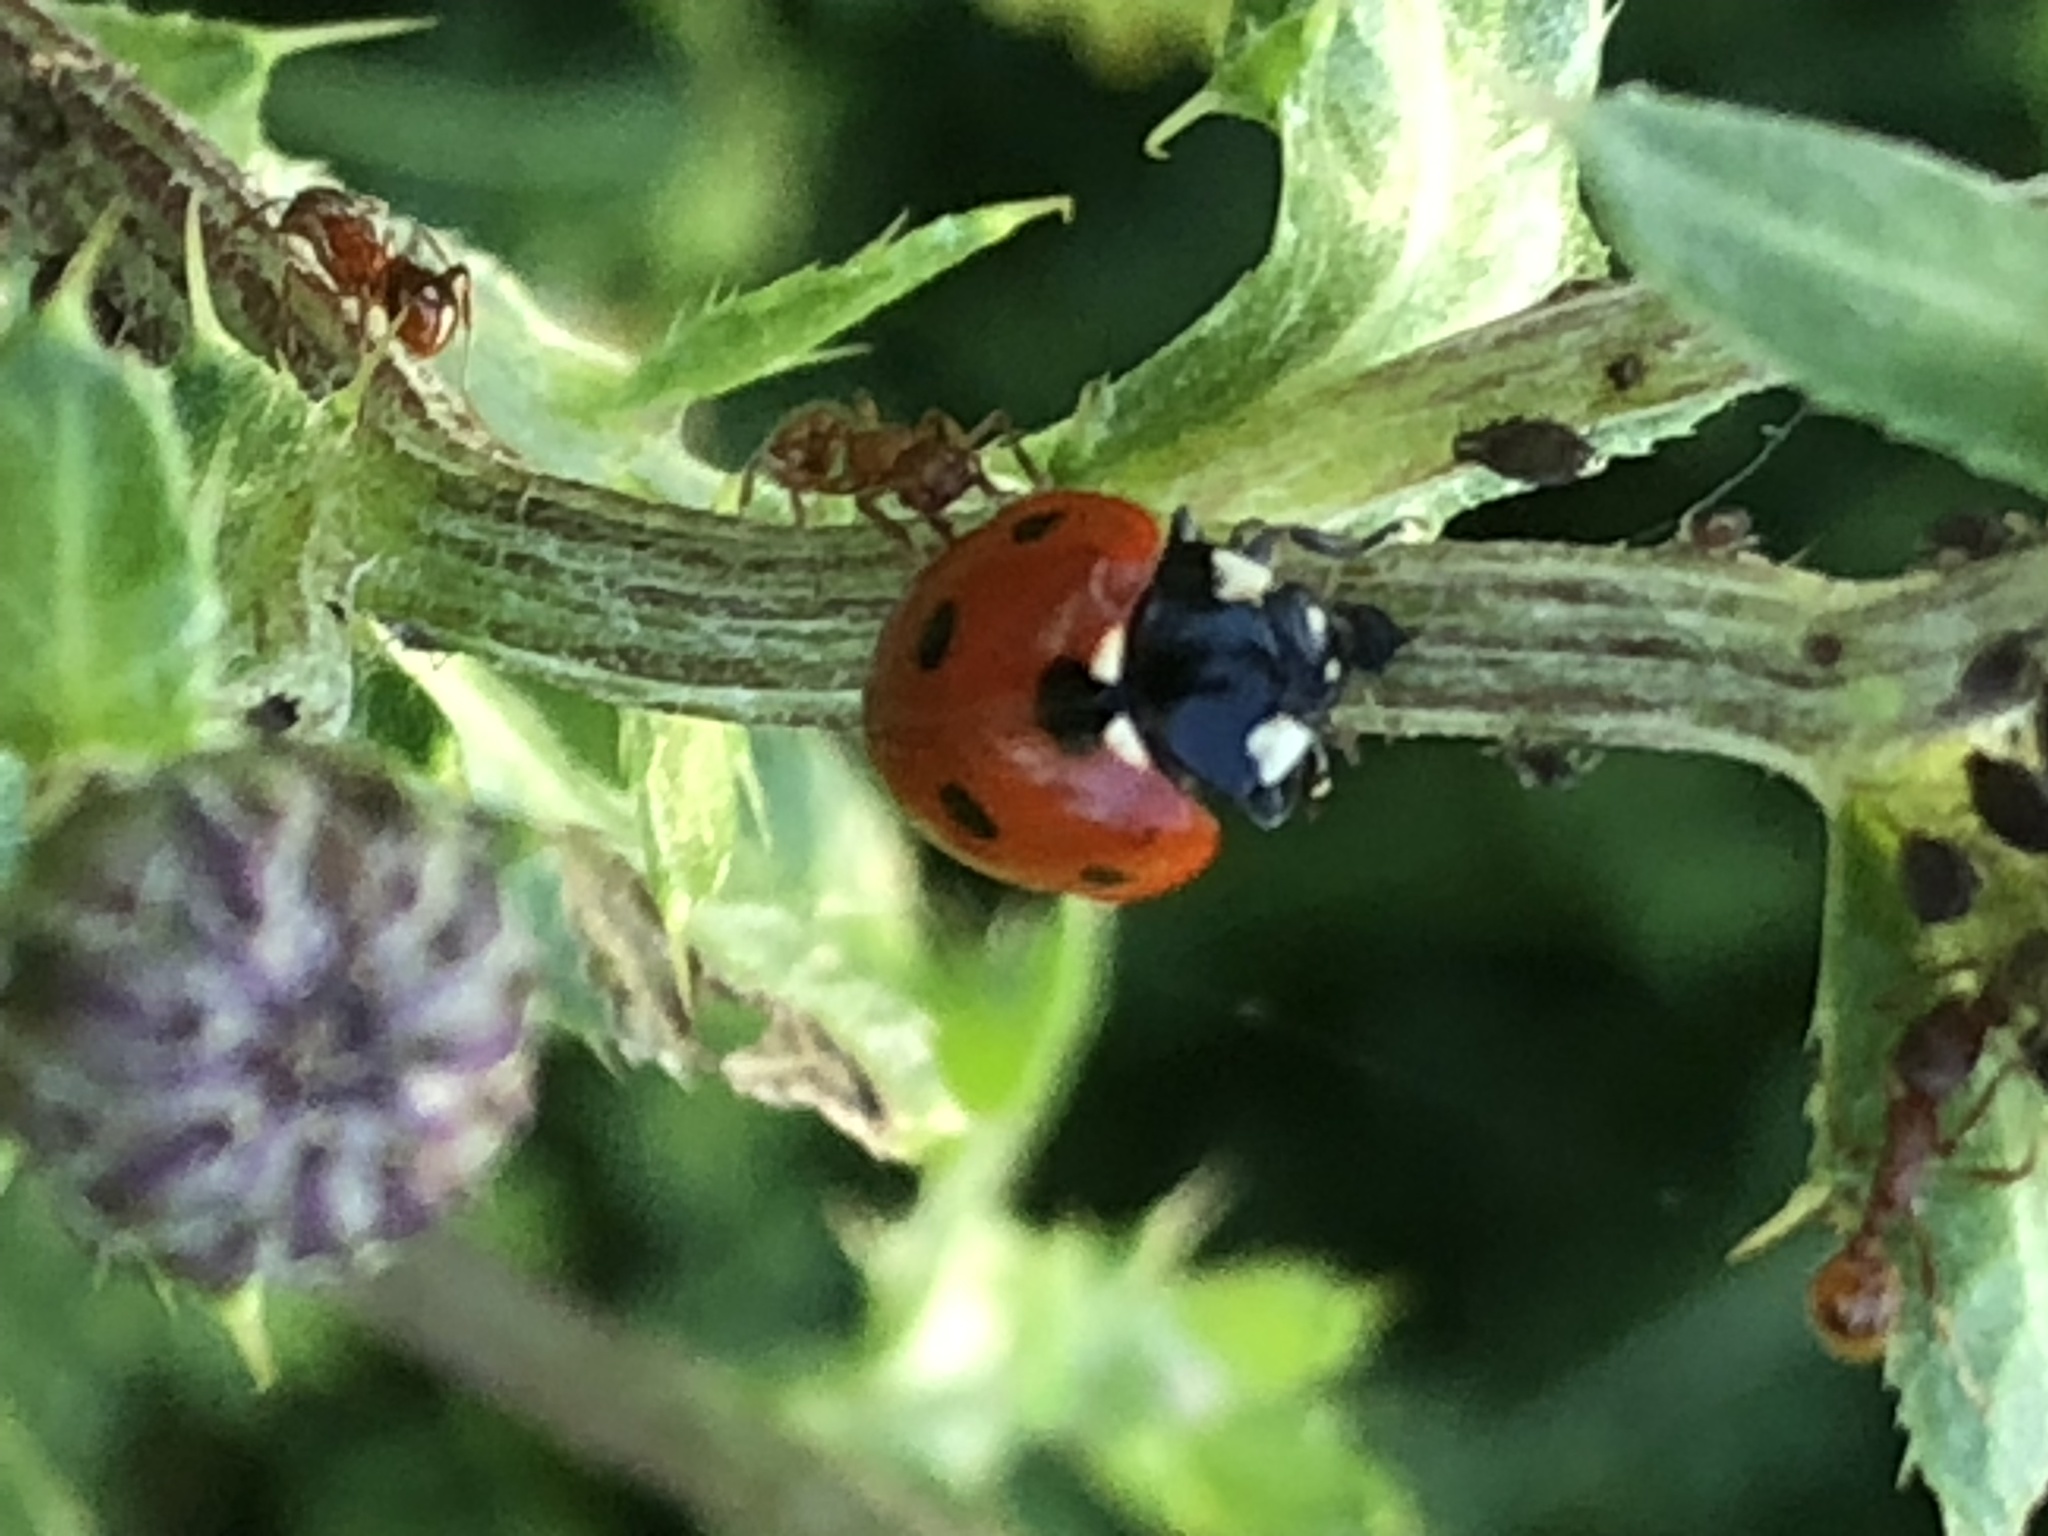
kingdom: Animalia
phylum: Arthropoda
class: Insecta
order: Coleoptera
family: Coccinellidae
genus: Coccinella
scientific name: Coccinella septempunctata
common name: Sevenspotted lady beetle
